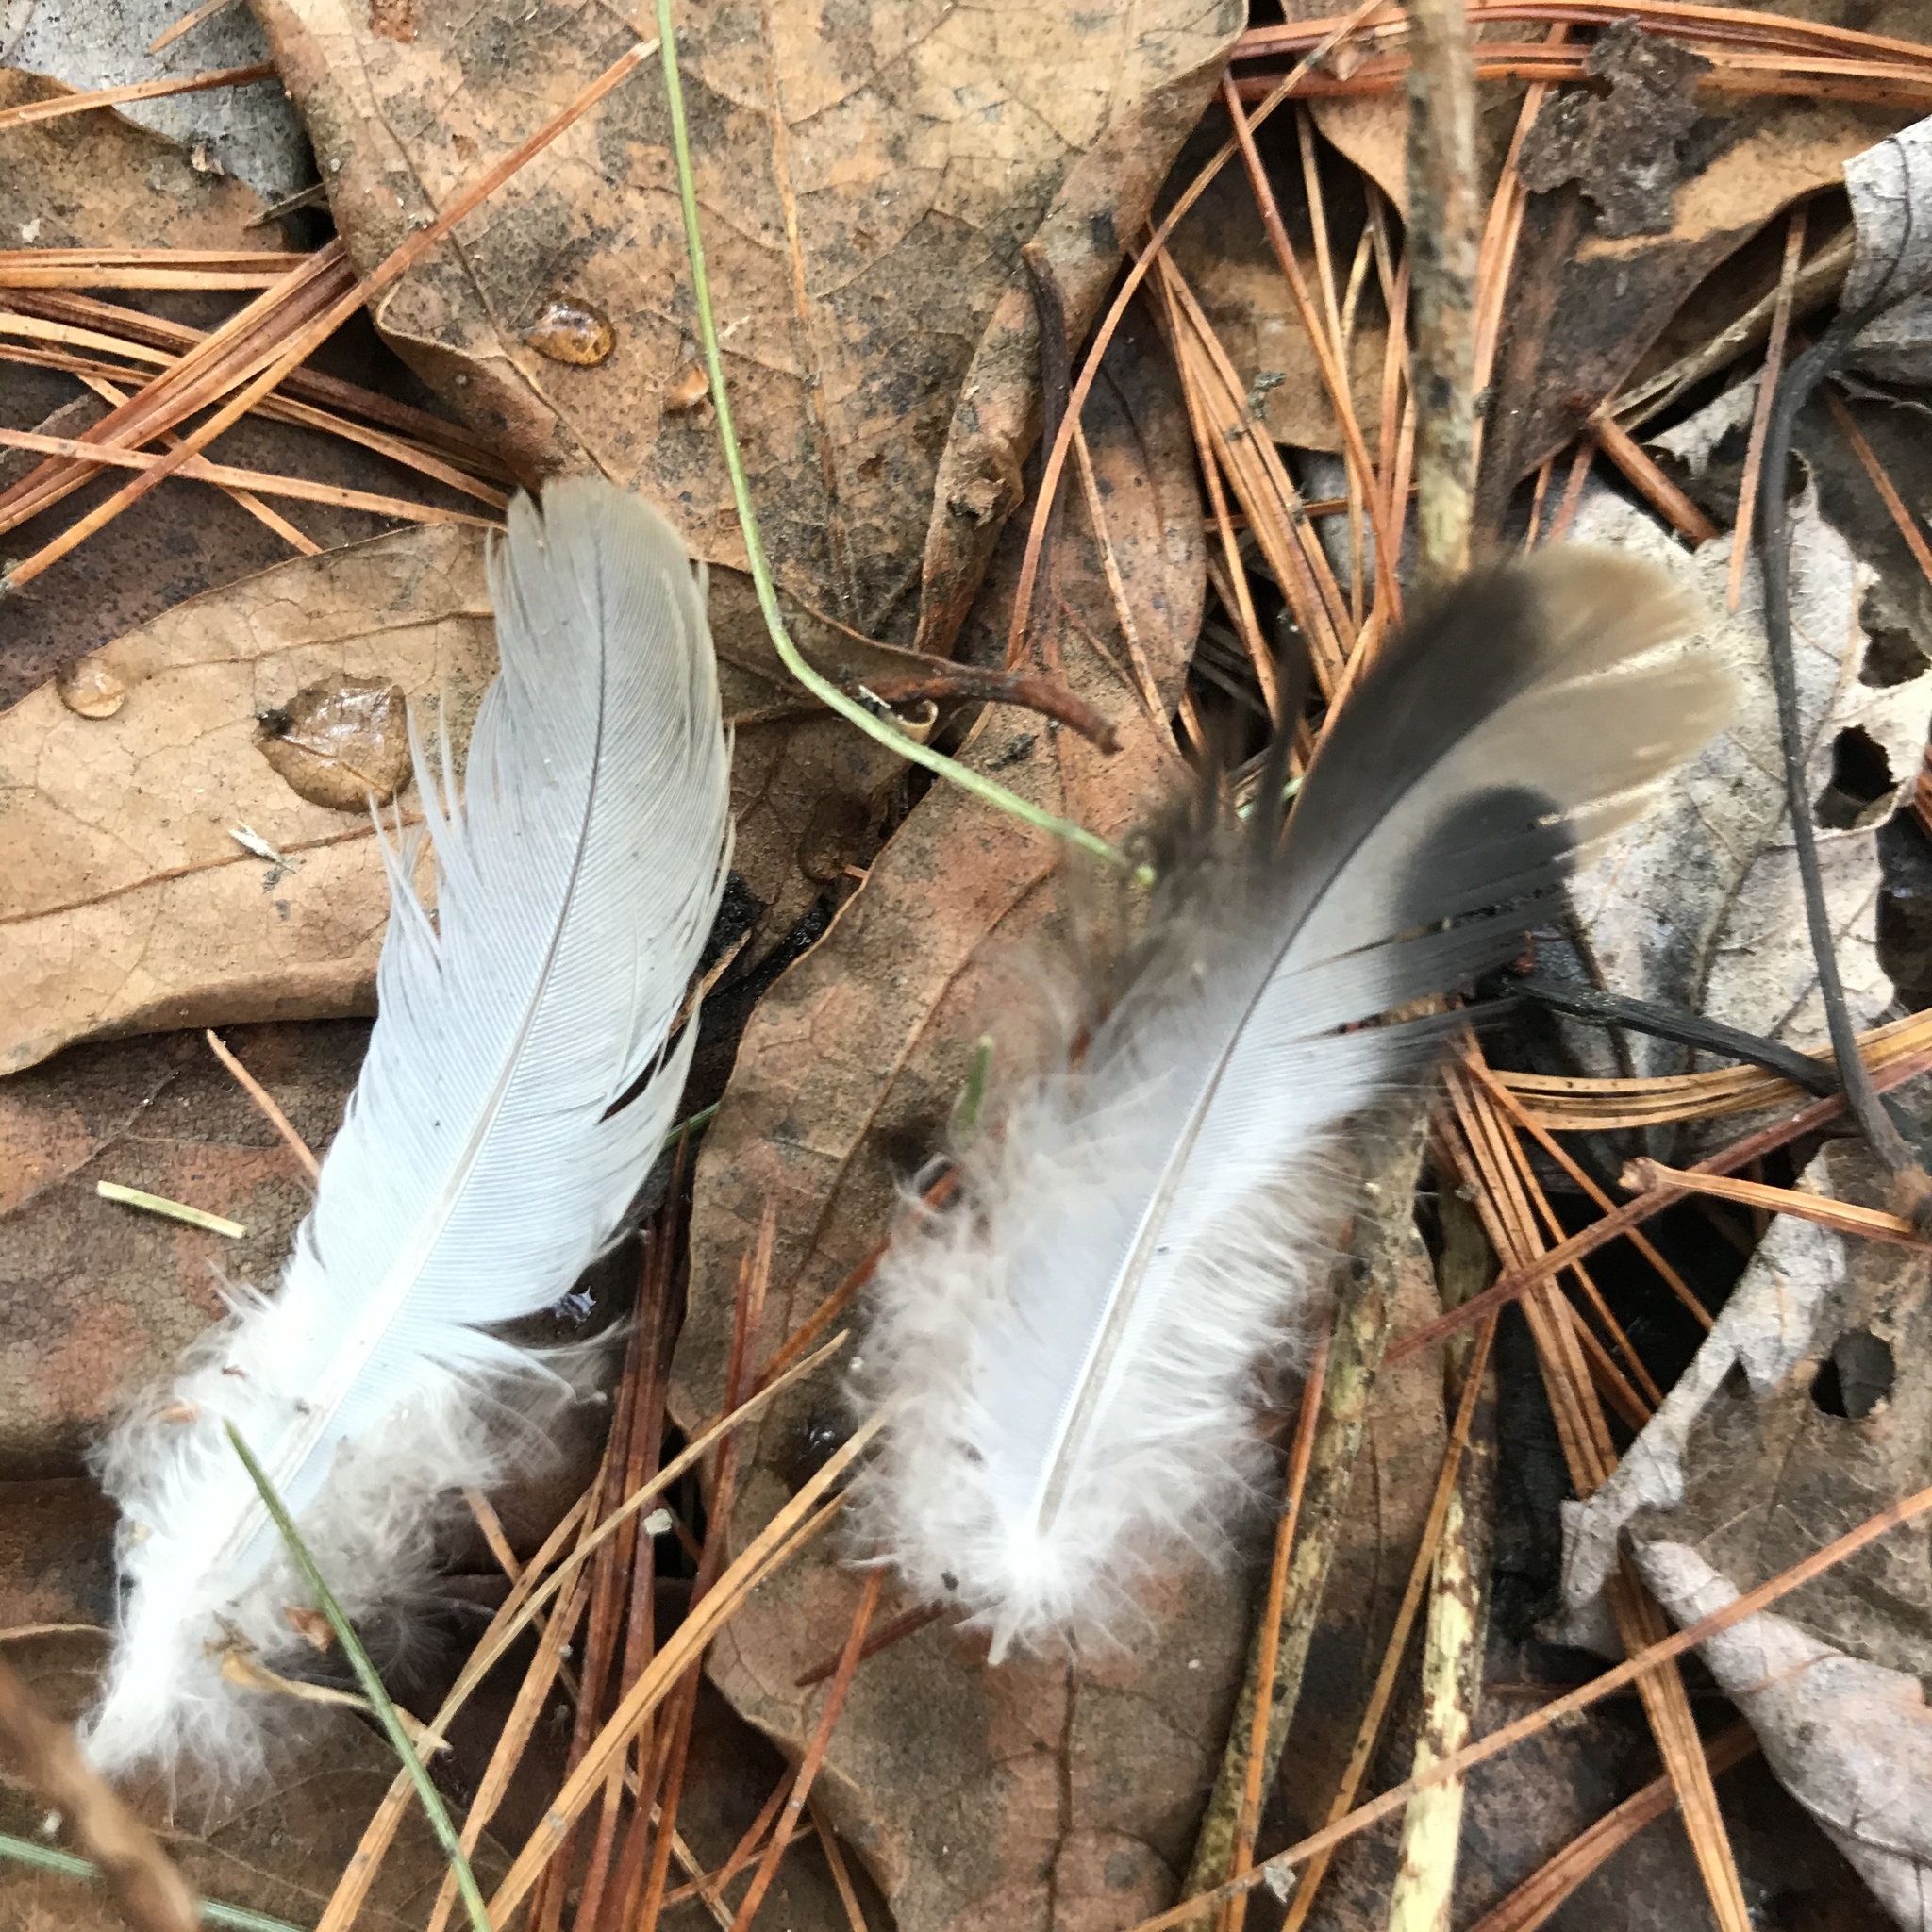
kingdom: Animalia
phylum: Chordata
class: Aves
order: Columbiformes
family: Columbidae
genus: Zenaida
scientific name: Zenaida macroura
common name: Mourning dove
